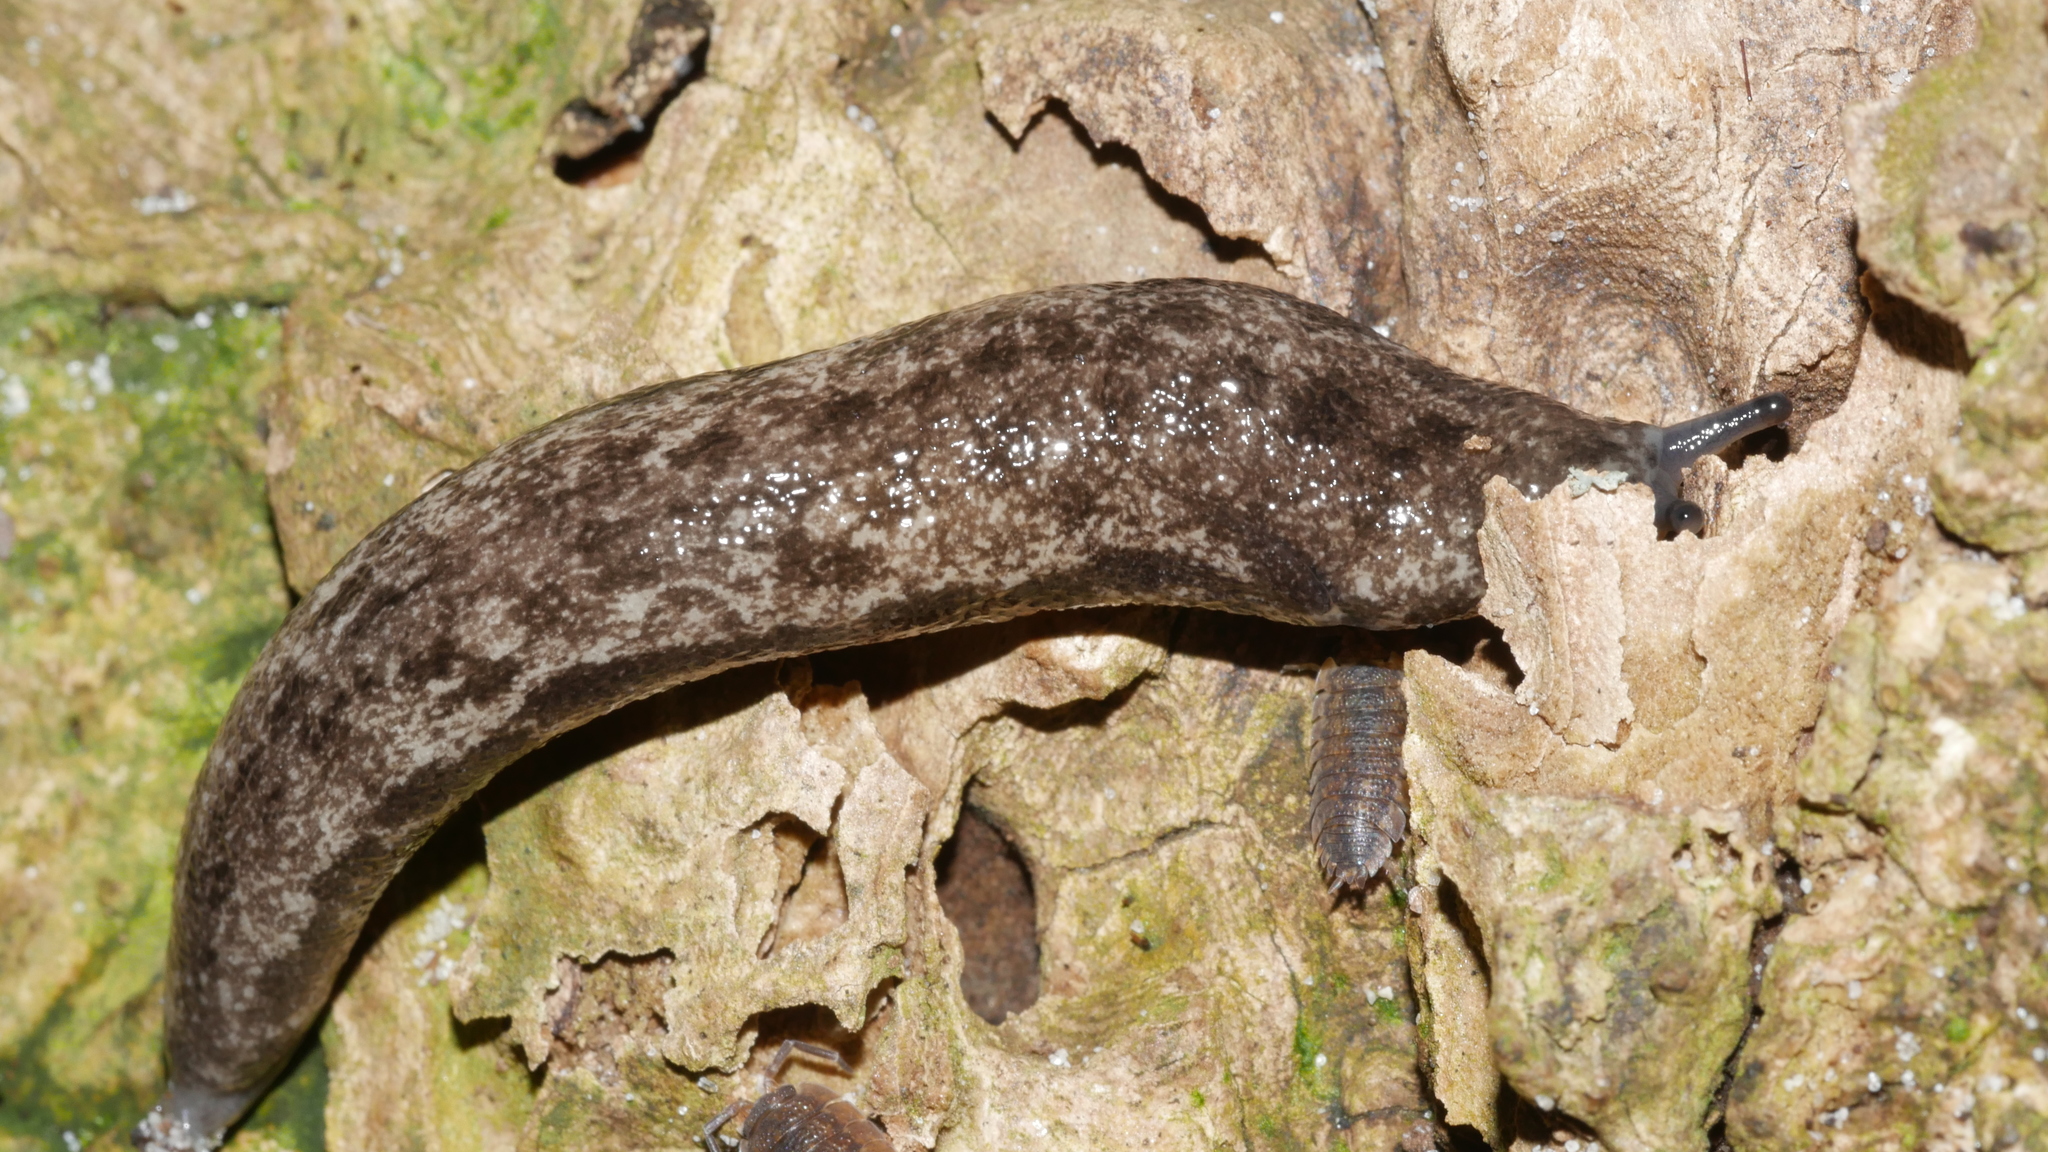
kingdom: Animalia
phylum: Mollusca
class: Gastropoda
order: Stylommatophora
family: Philomycidae
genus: Megapallifera
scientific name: Megapallifera mutabilis
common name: Changeable mantleslug
